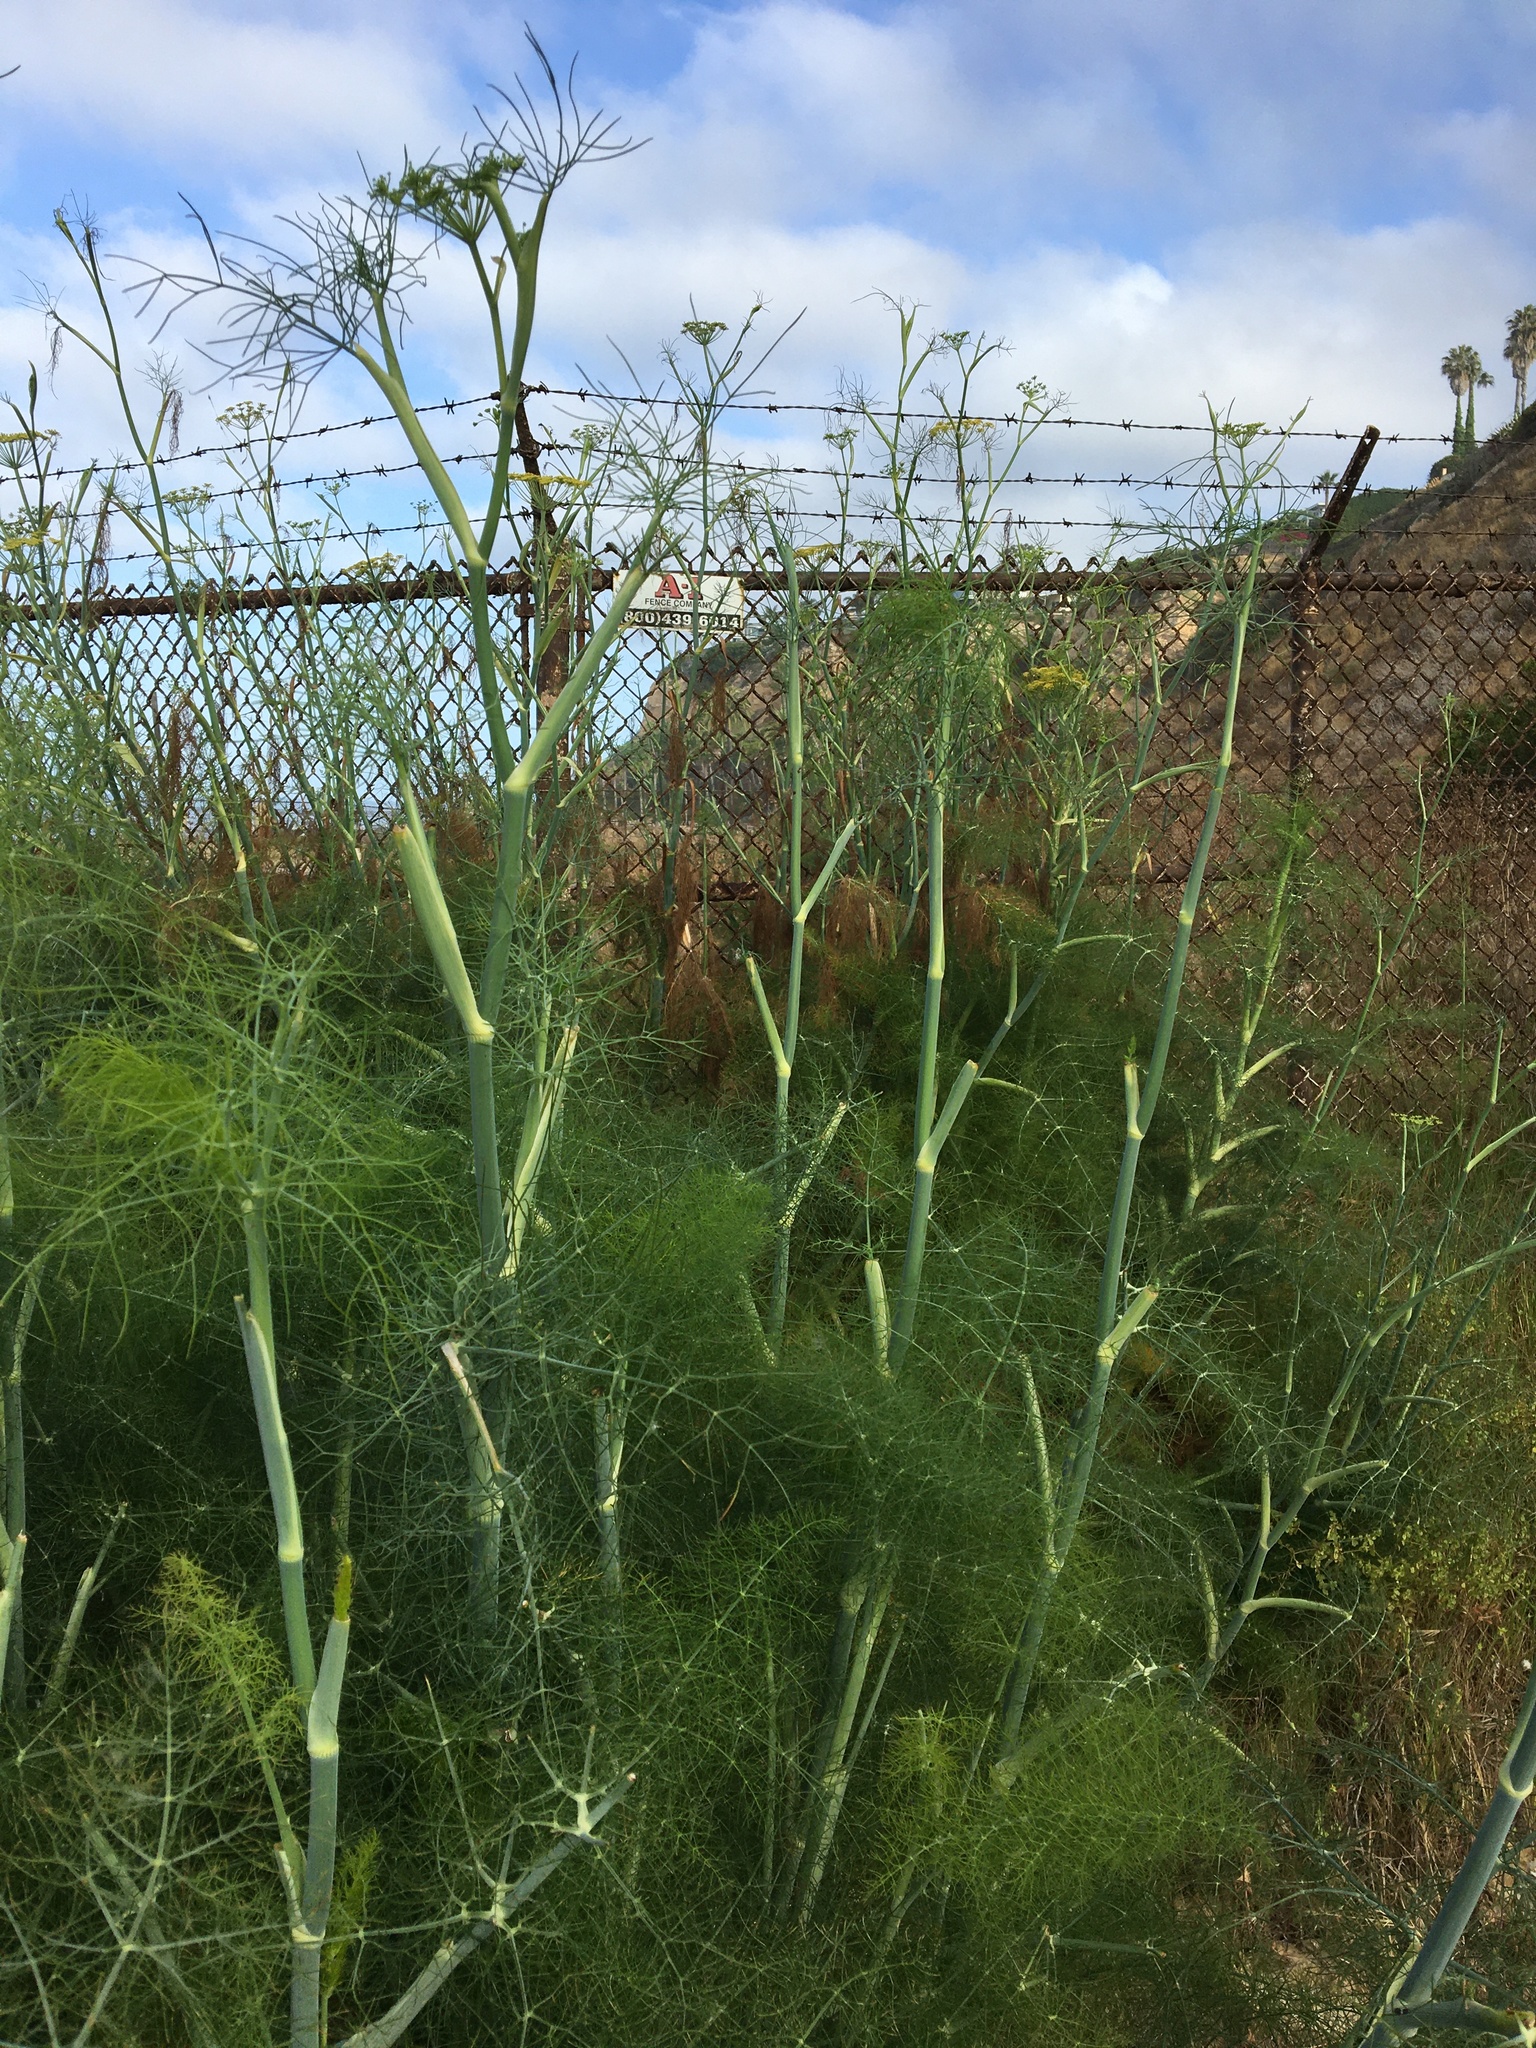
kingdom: Plantae
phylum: Tracheophyta
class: Magnoliopsida
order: Apiales
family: Apiaceae
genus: Foeniculum
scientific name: Foeniculum vulgare
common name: Fennel
